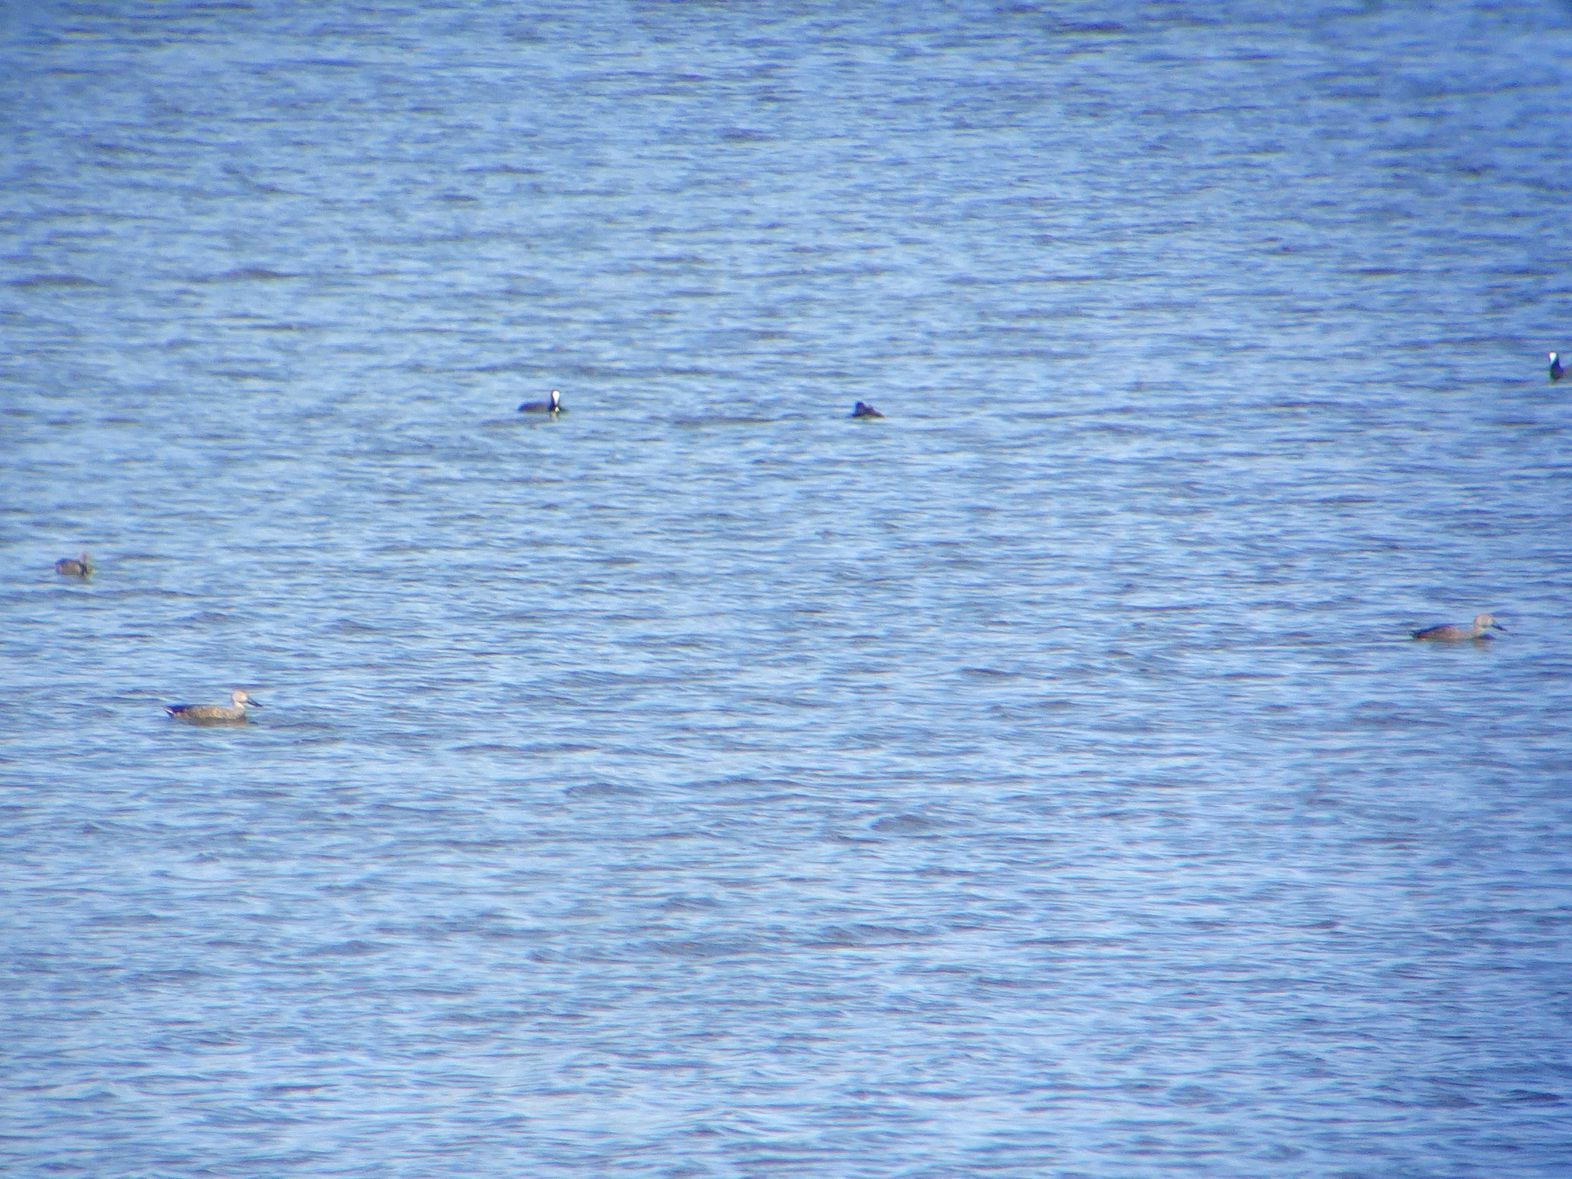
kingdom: Animalia
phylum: Chordata
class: Aves
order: Anseriformes
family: Anatidae
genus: Spatula
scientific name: Spatula smithii
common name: Cape shoveler
